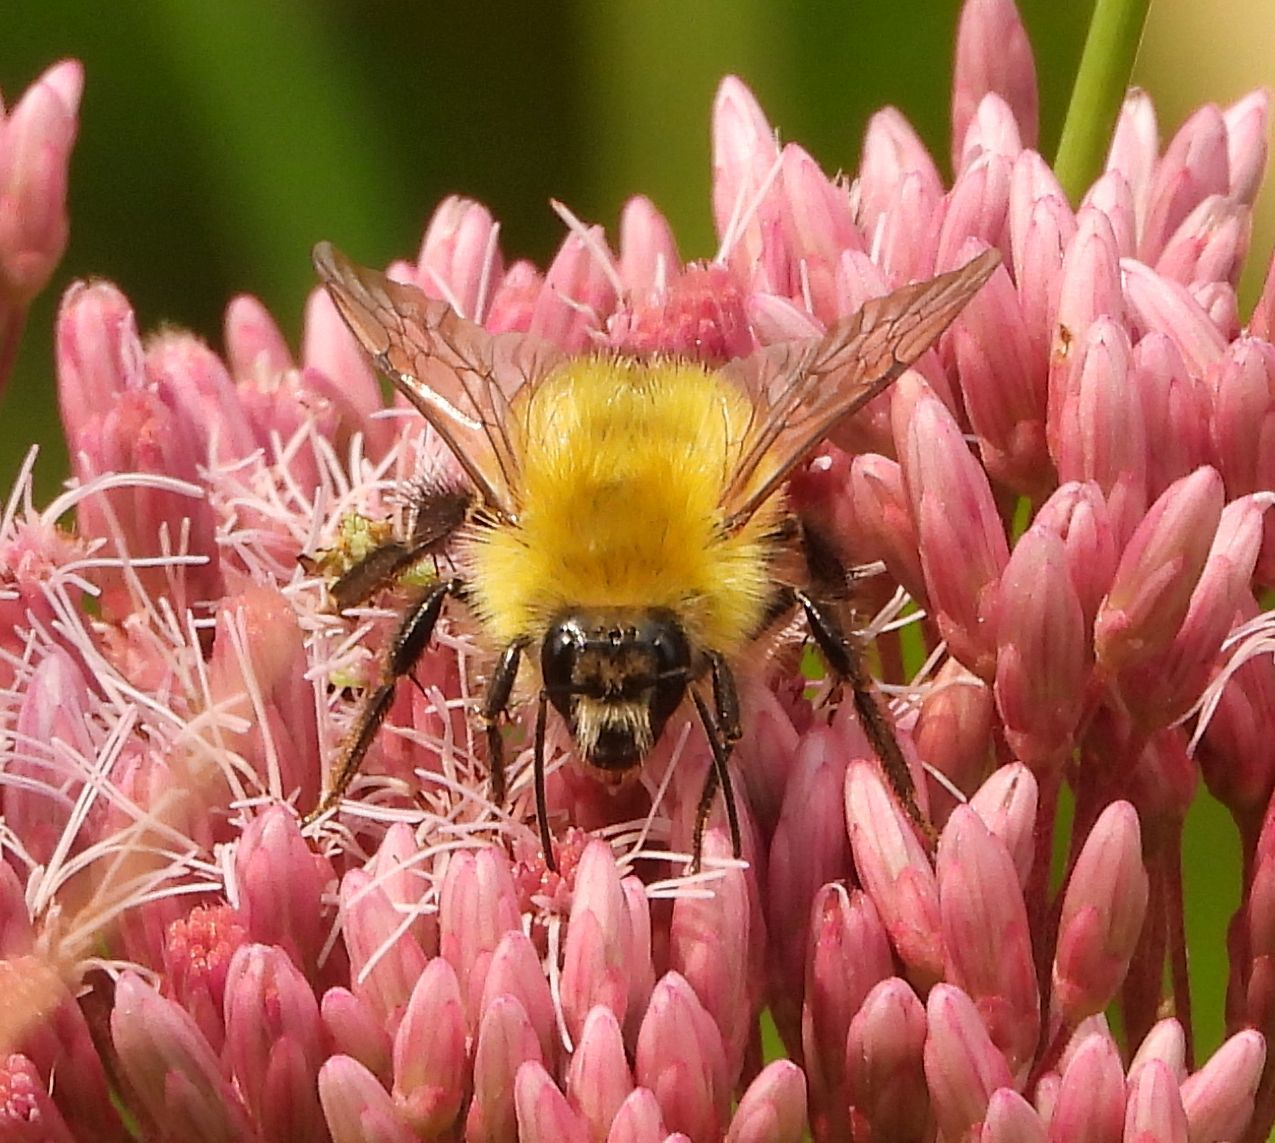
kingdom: Animalia
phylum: Arthropoda
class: Insecta
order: Hymenoptera
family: Apidae
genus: Bombus
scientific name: Bombus perplexus
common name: Confusing bumble bee
